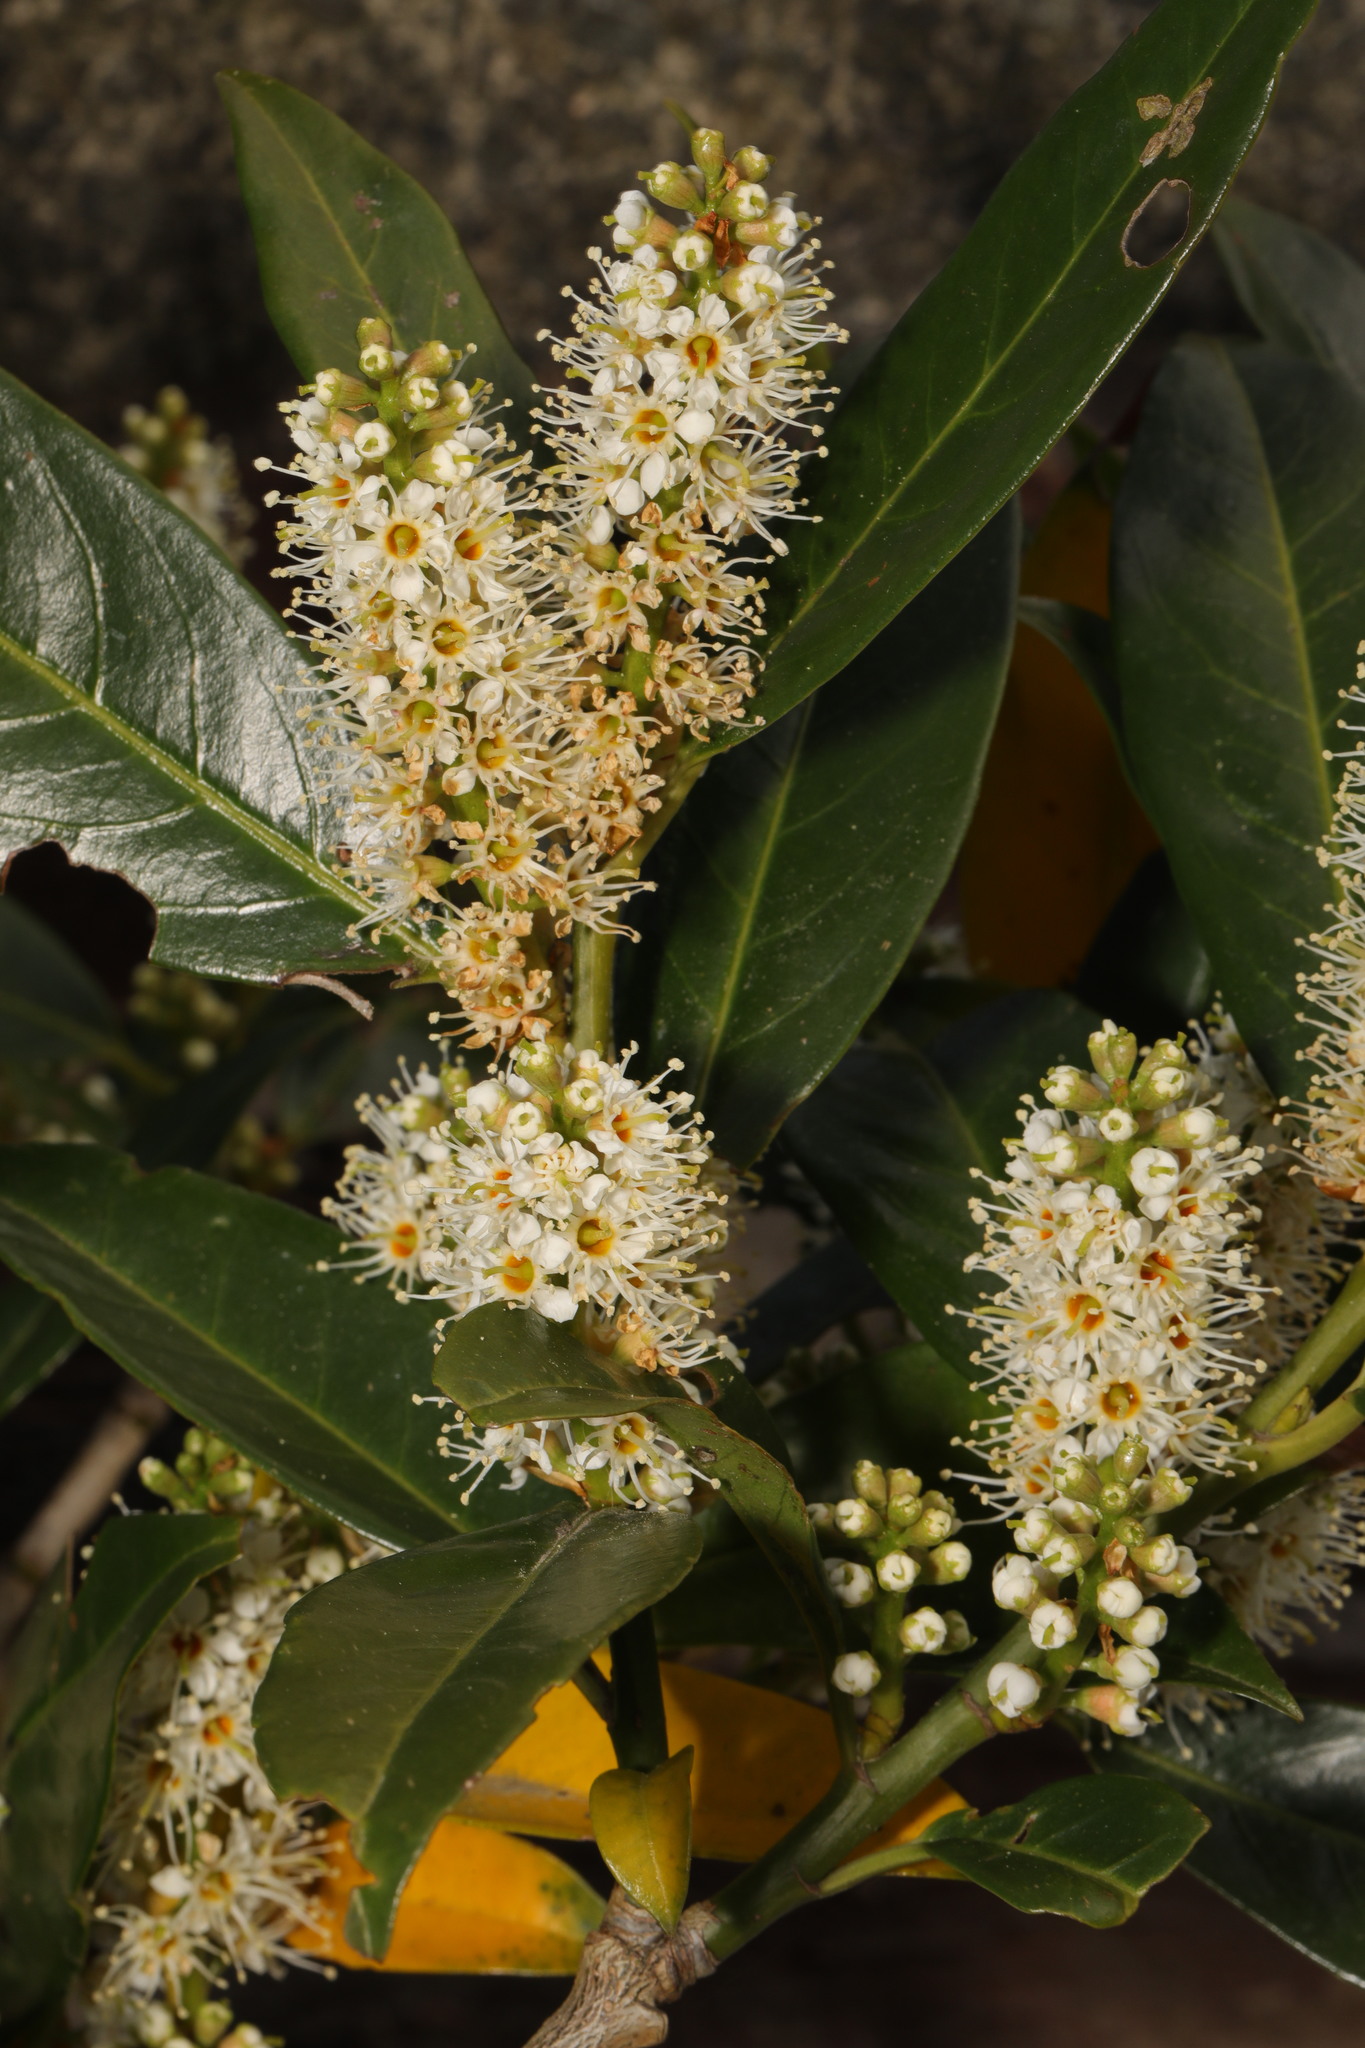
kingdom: Plantae
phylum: Tracheophyta
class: Magnoliopsida
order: Rosales
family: Rosaceae
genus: Prunus
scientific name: Prunus laurocerasus
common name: Cherry laurel
